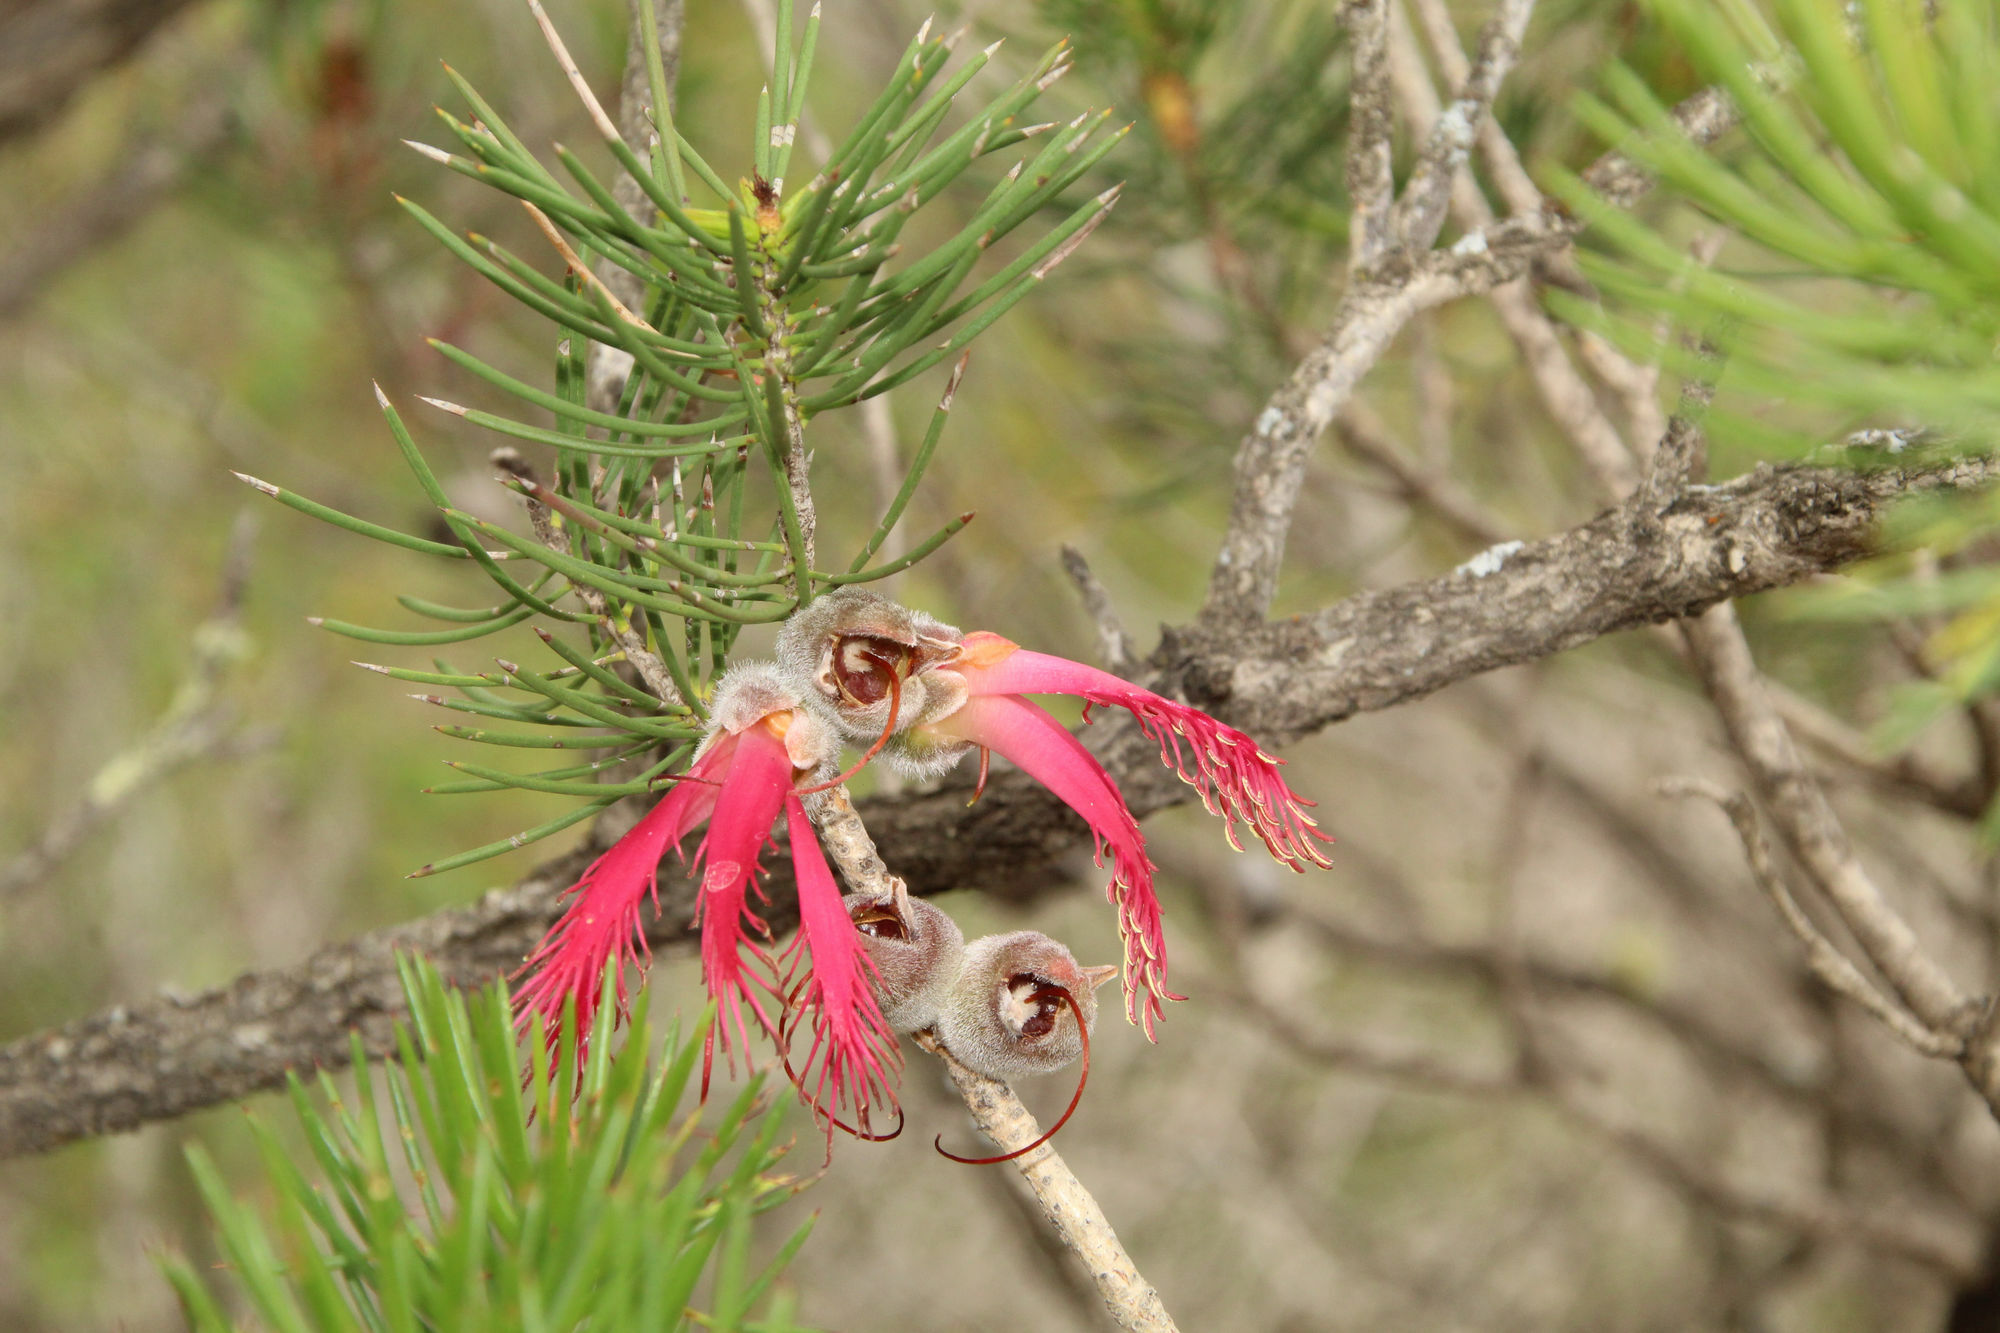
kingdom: Plantae
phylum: Tracheophyta
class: Magnoliopsida
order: Myrtales
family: Myrtaceae
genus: Melaleuca
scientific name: Melaleuca quadrifida
